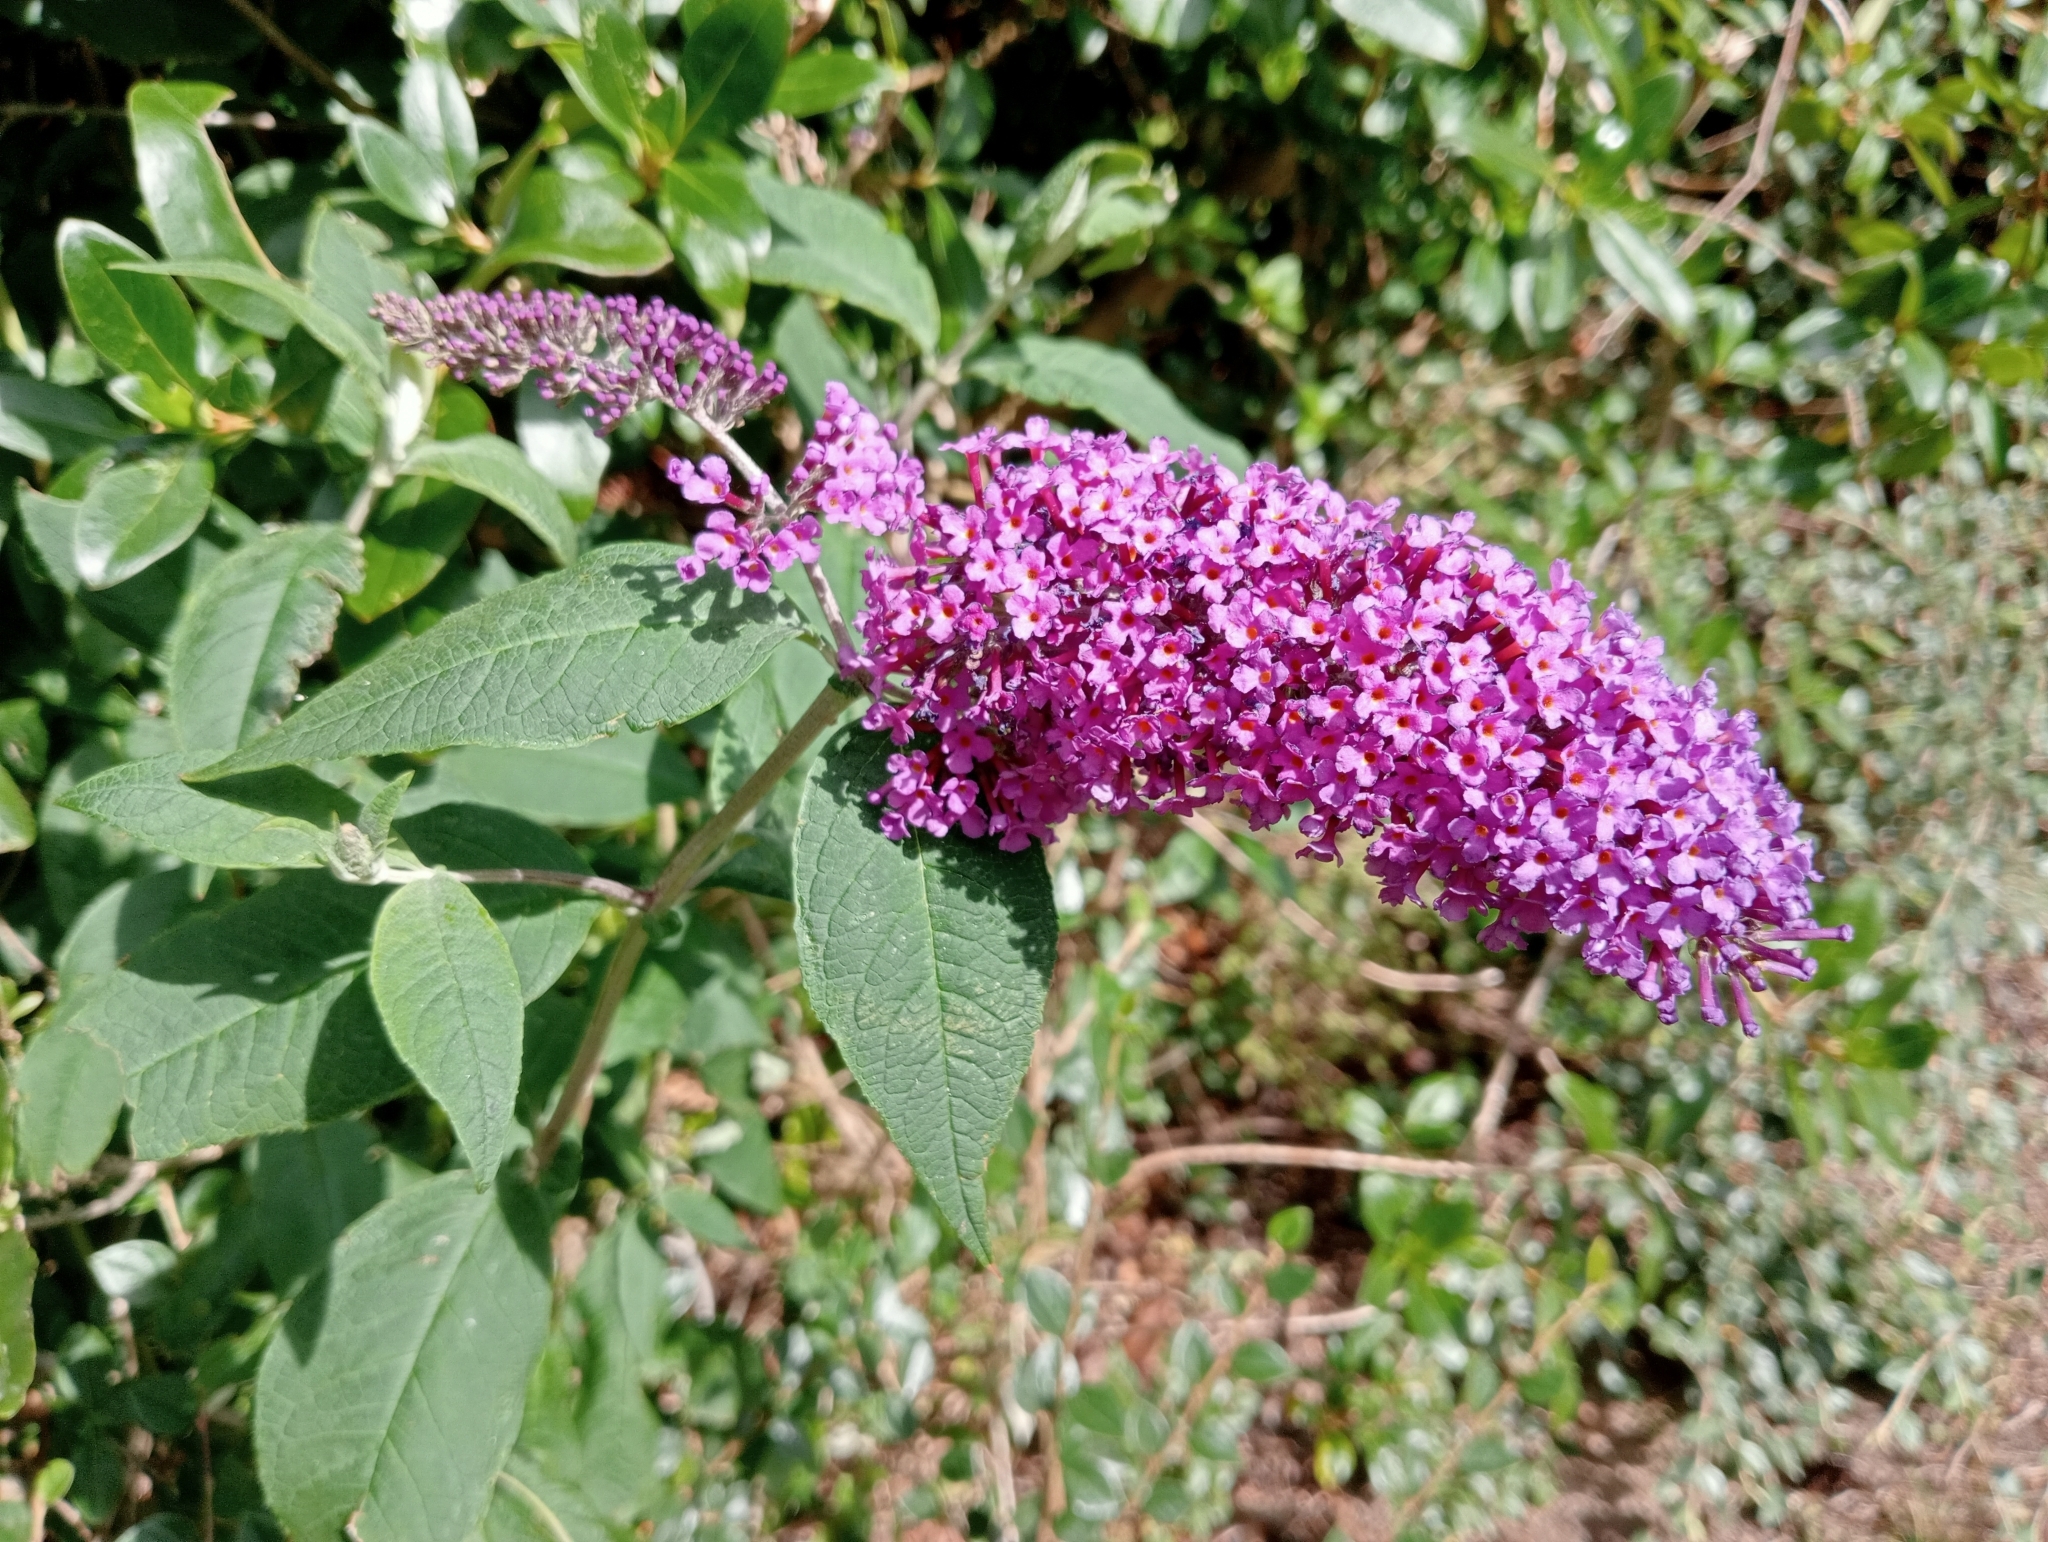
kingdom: Plantae
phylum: Tracheophyta
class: Magnoliopsida
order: Lamiales
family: Scrophulariaceae
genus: Buddleja
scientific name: Buddleja davidii
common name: Butterfly-bush
